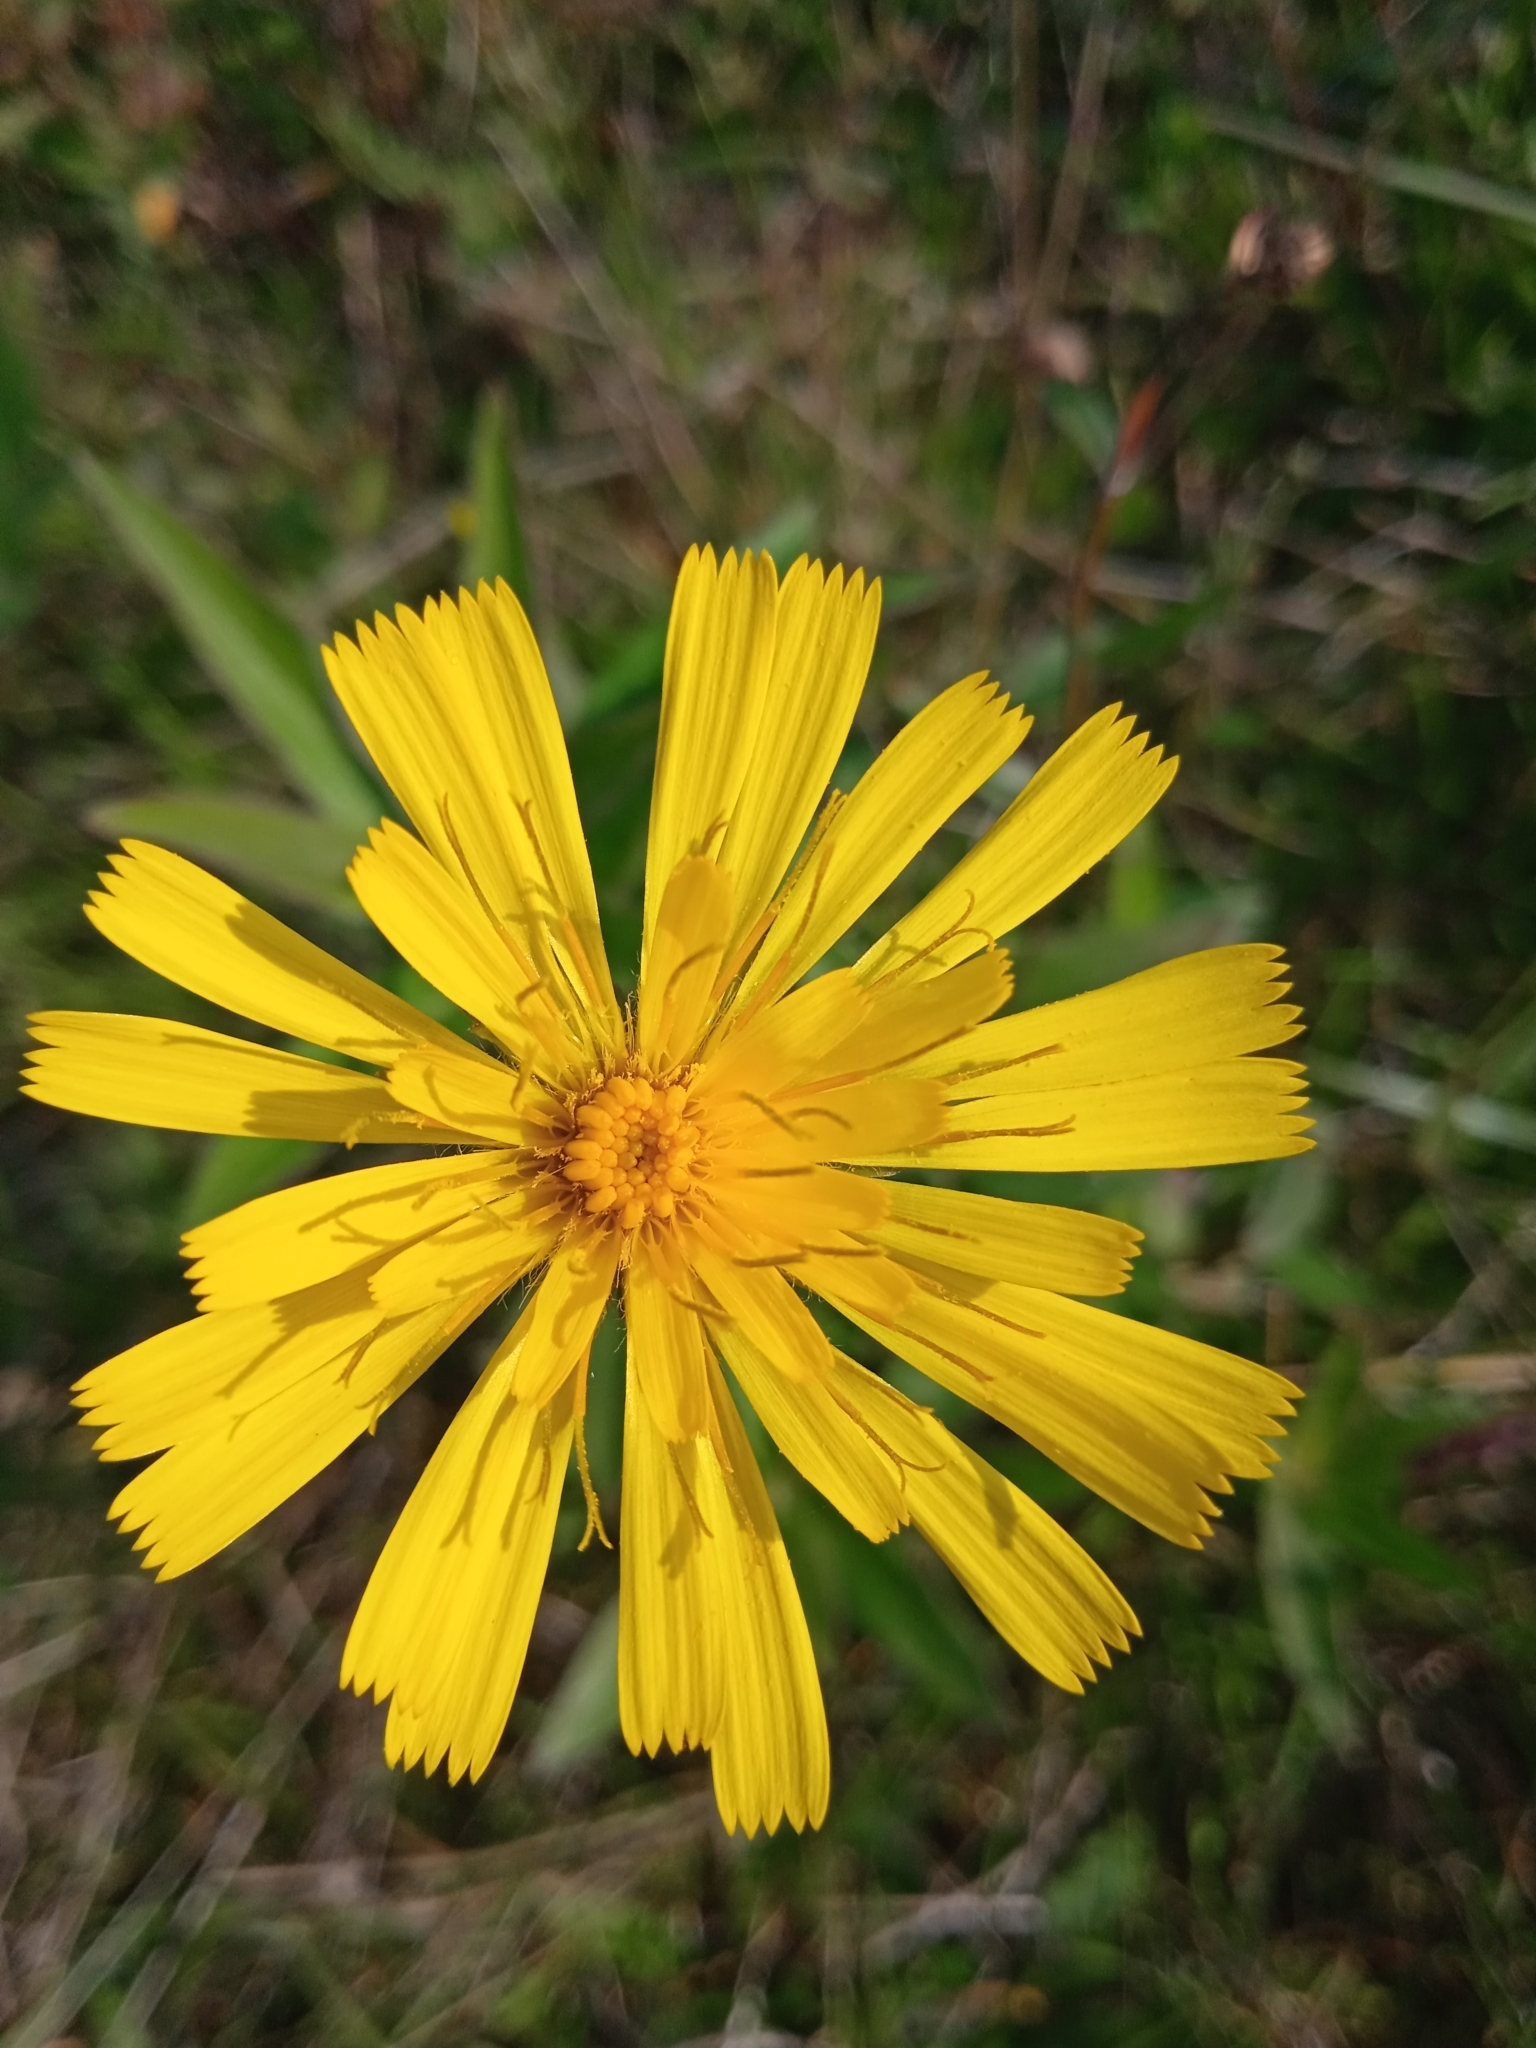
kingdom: Plantae
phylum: Tracheophyta
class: Magnoliopsida
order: Asterales
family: Asteraceae
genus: Hieracium
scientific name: Hieracium umbellatum
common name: Northern hawkweed
